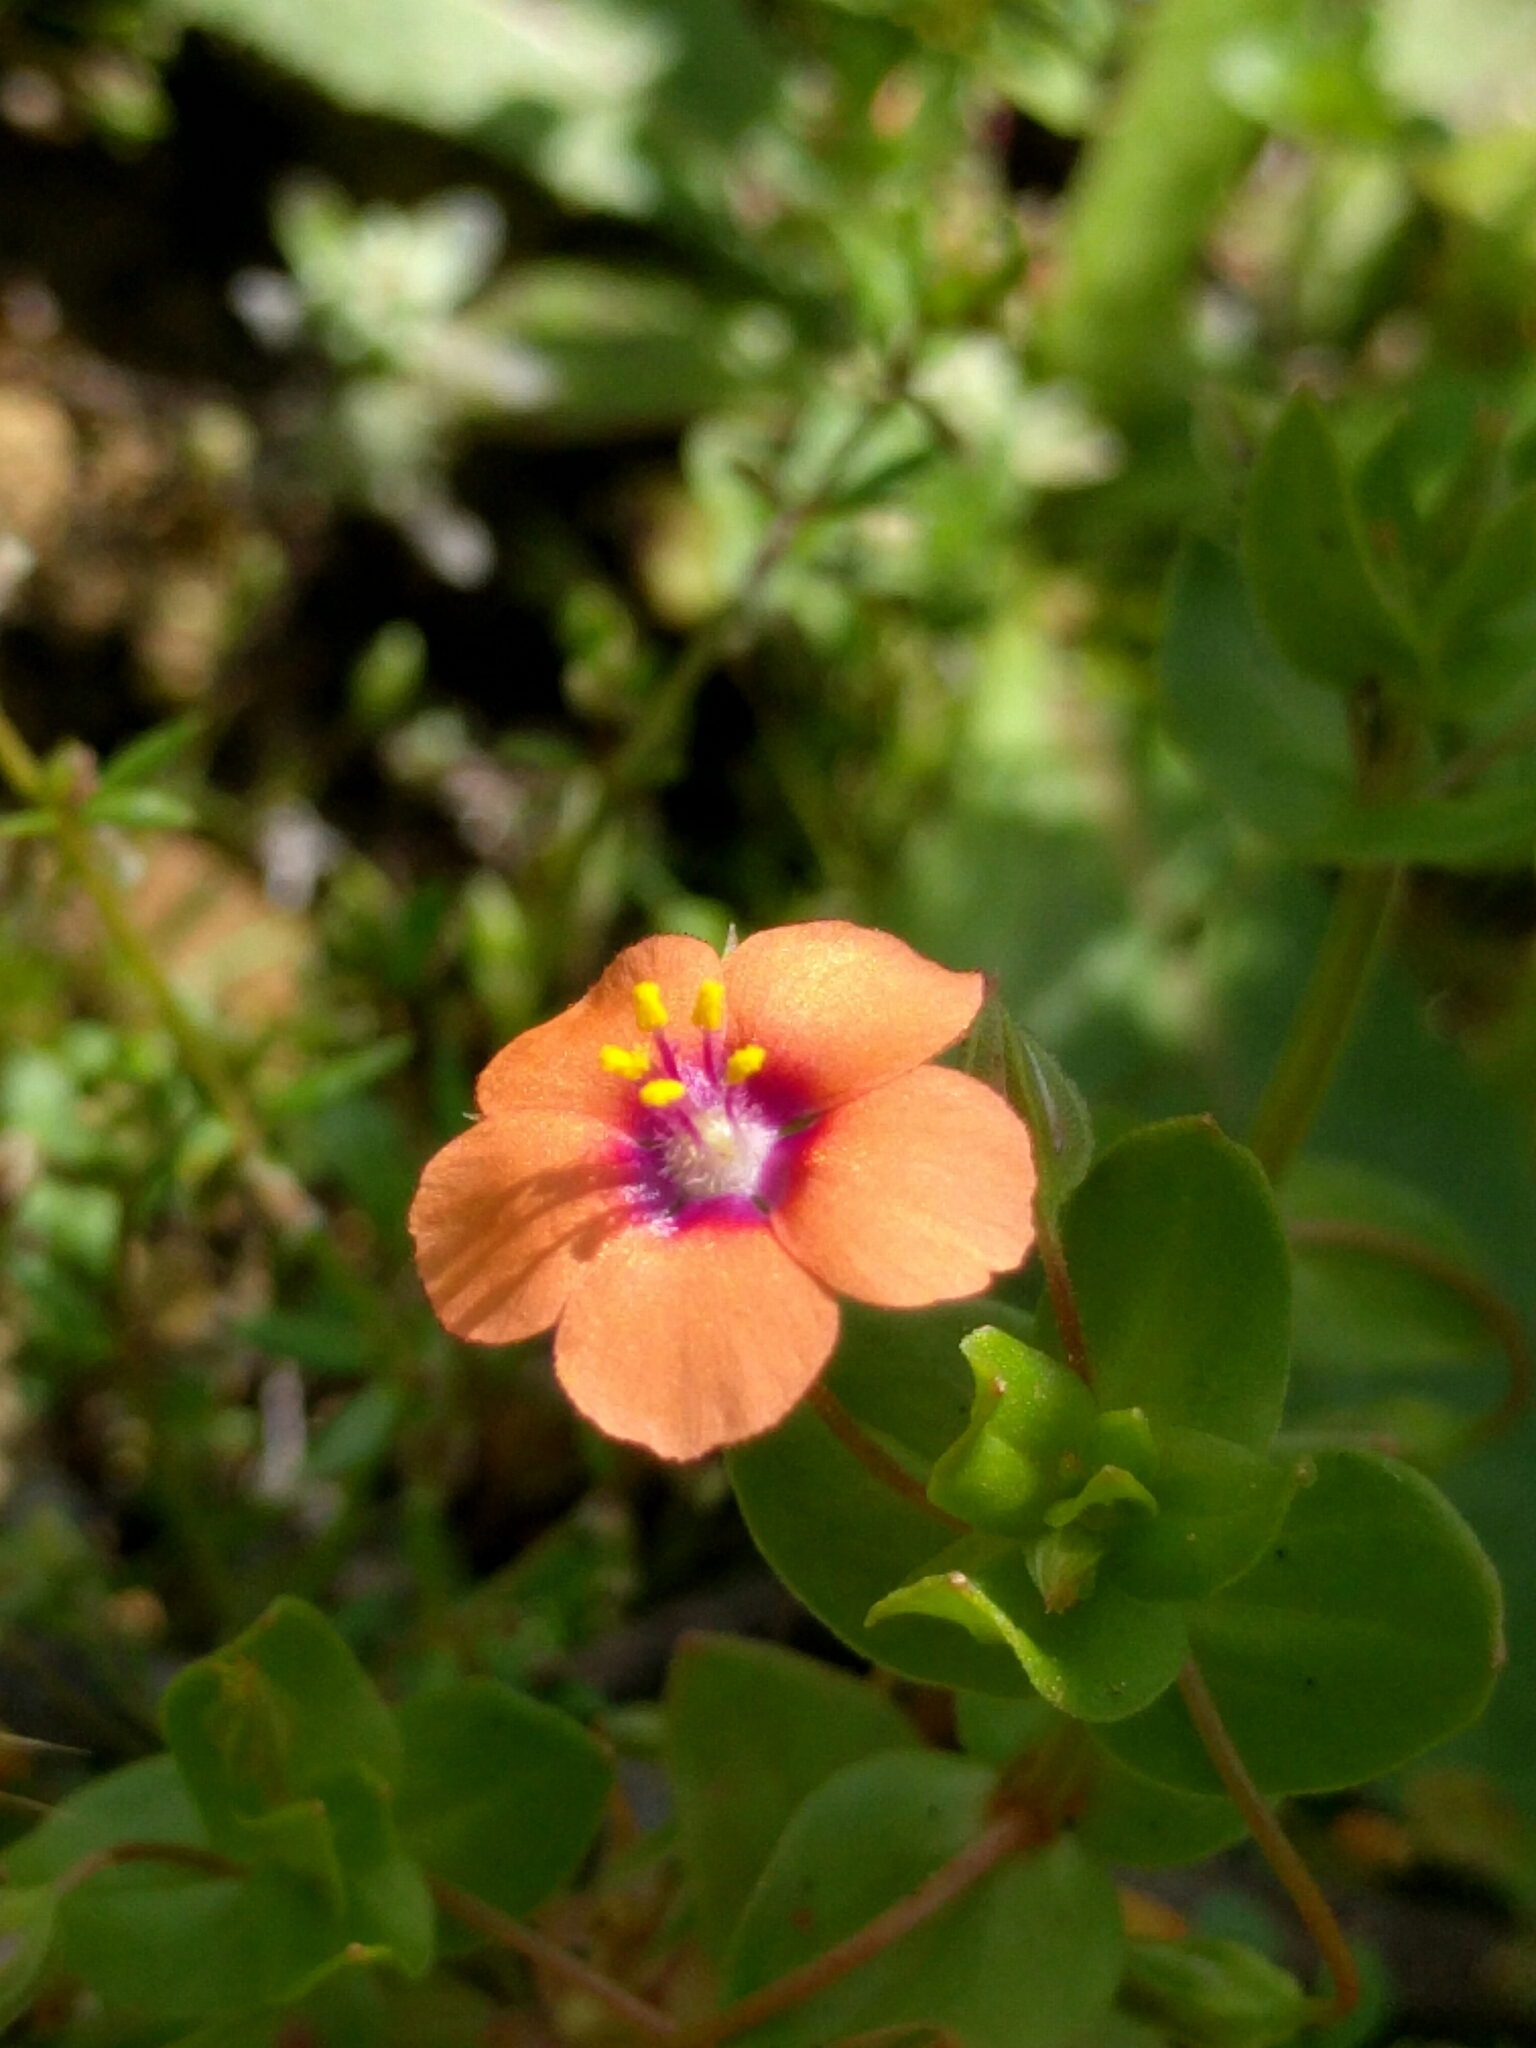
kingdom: Plantae
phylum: Tracheophyta
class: Magnoliopsida
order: Ericales
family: Primulaceae
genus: Lysimachia
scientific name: Lysimachia arvensis
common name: Scarlet pimpernel
